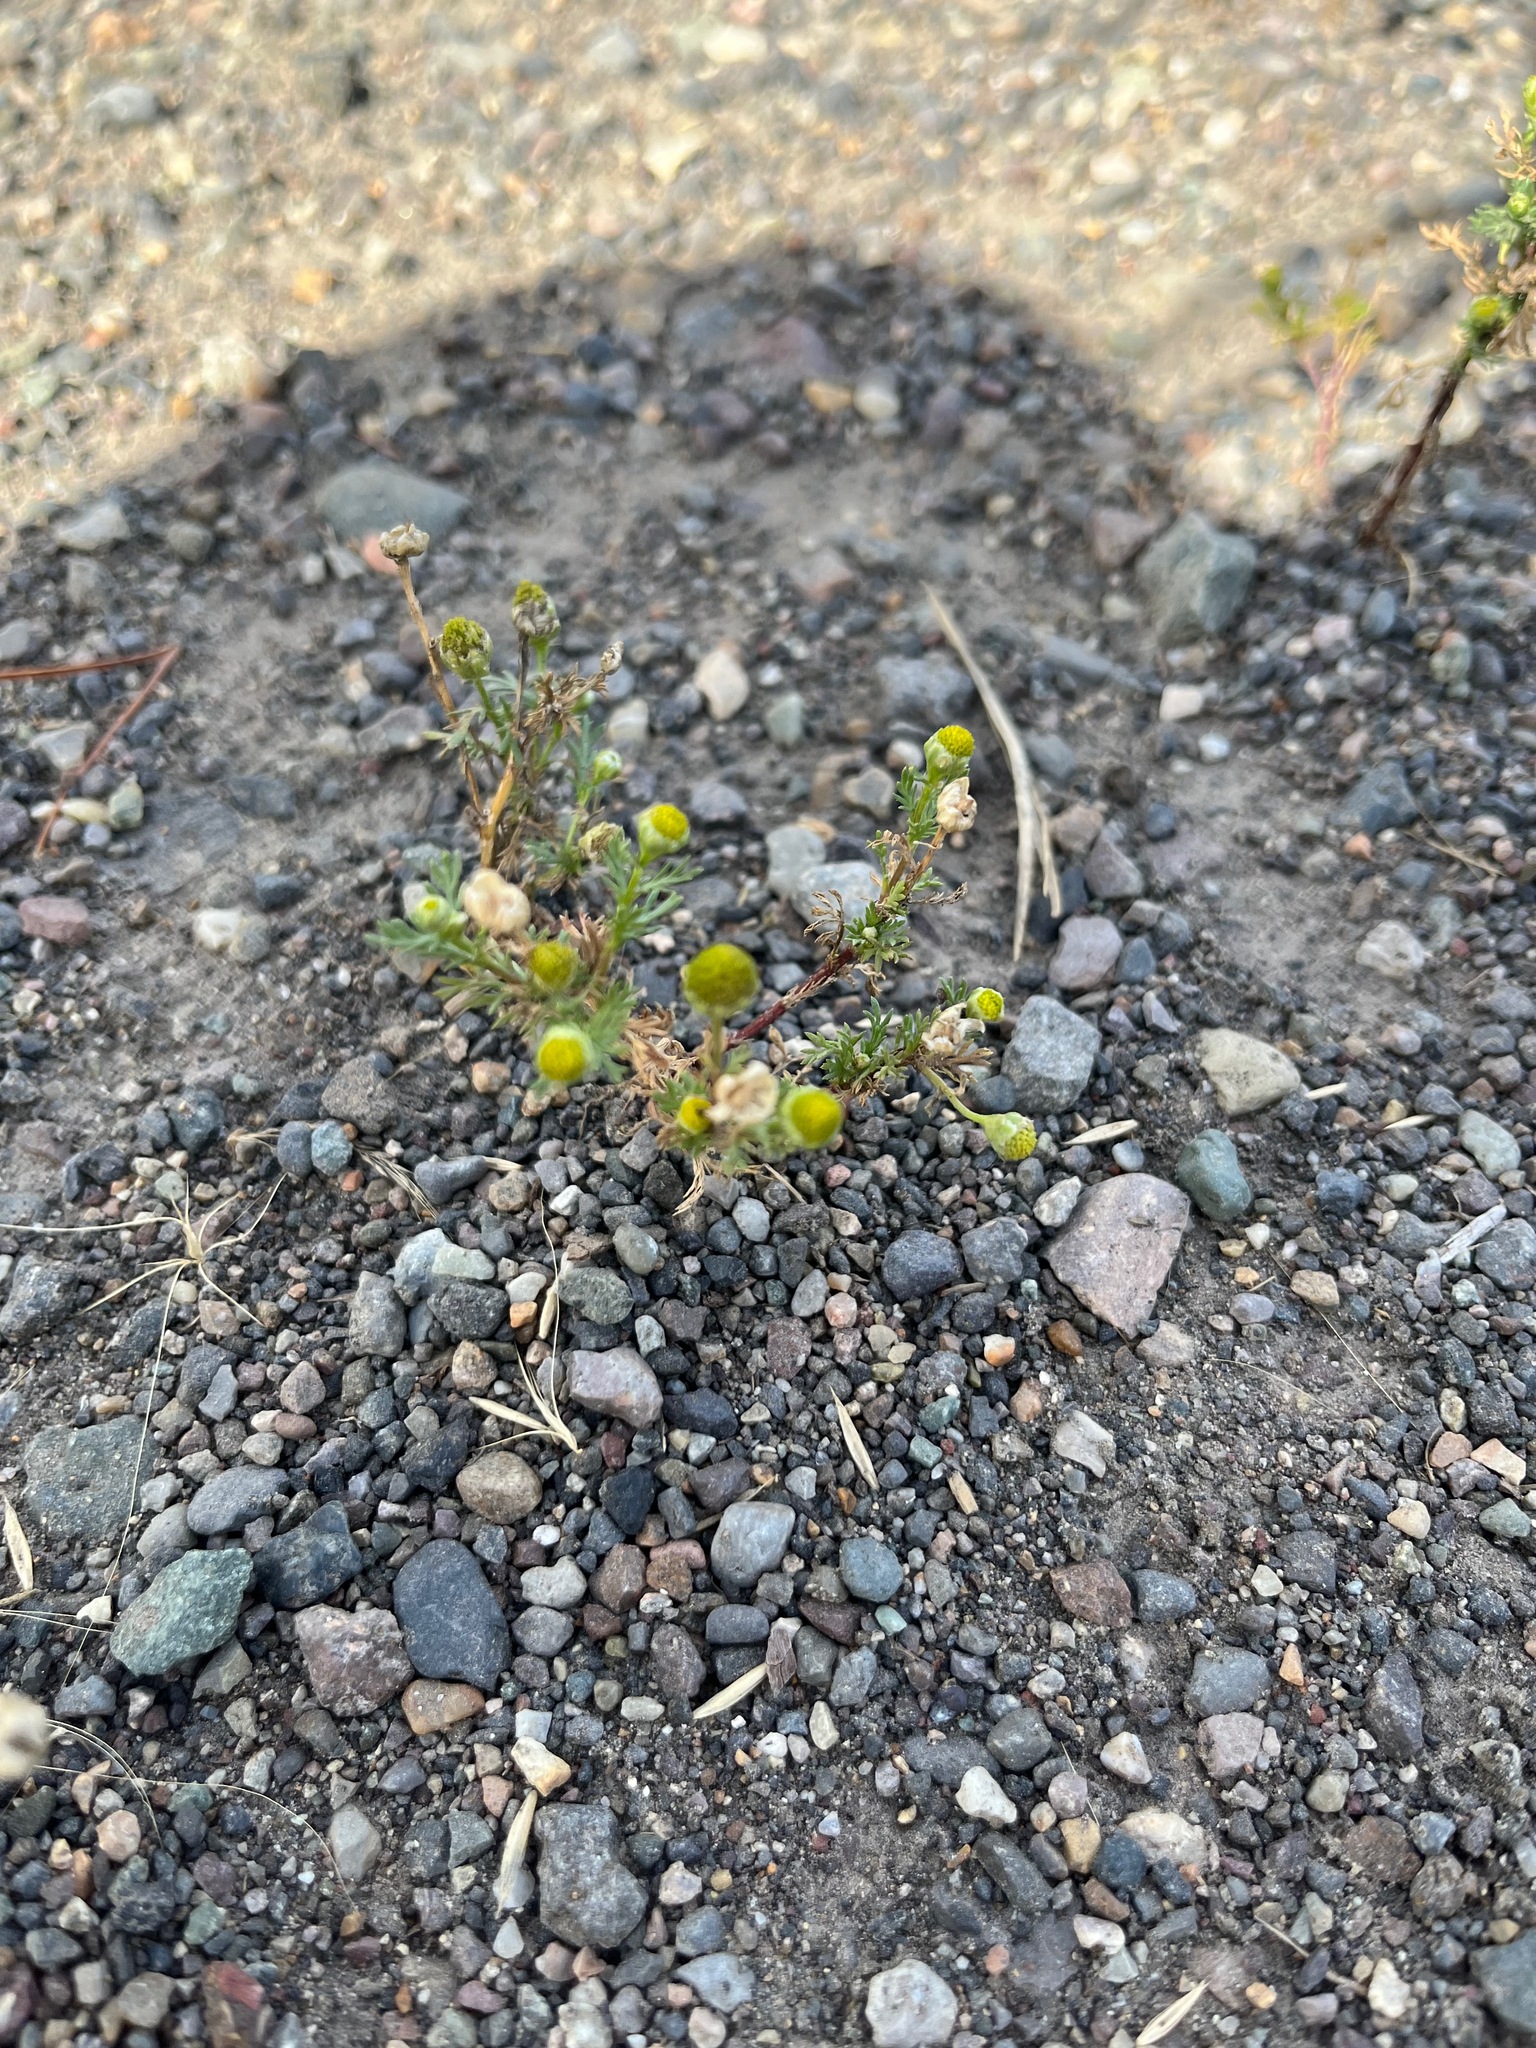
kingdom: Plantae
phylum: Tracheophyta
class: Magnoliopsida
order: Asterales
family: Asteraceae
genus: Matricaria
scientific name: Matricaria discoidea
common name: Disc mayweed
